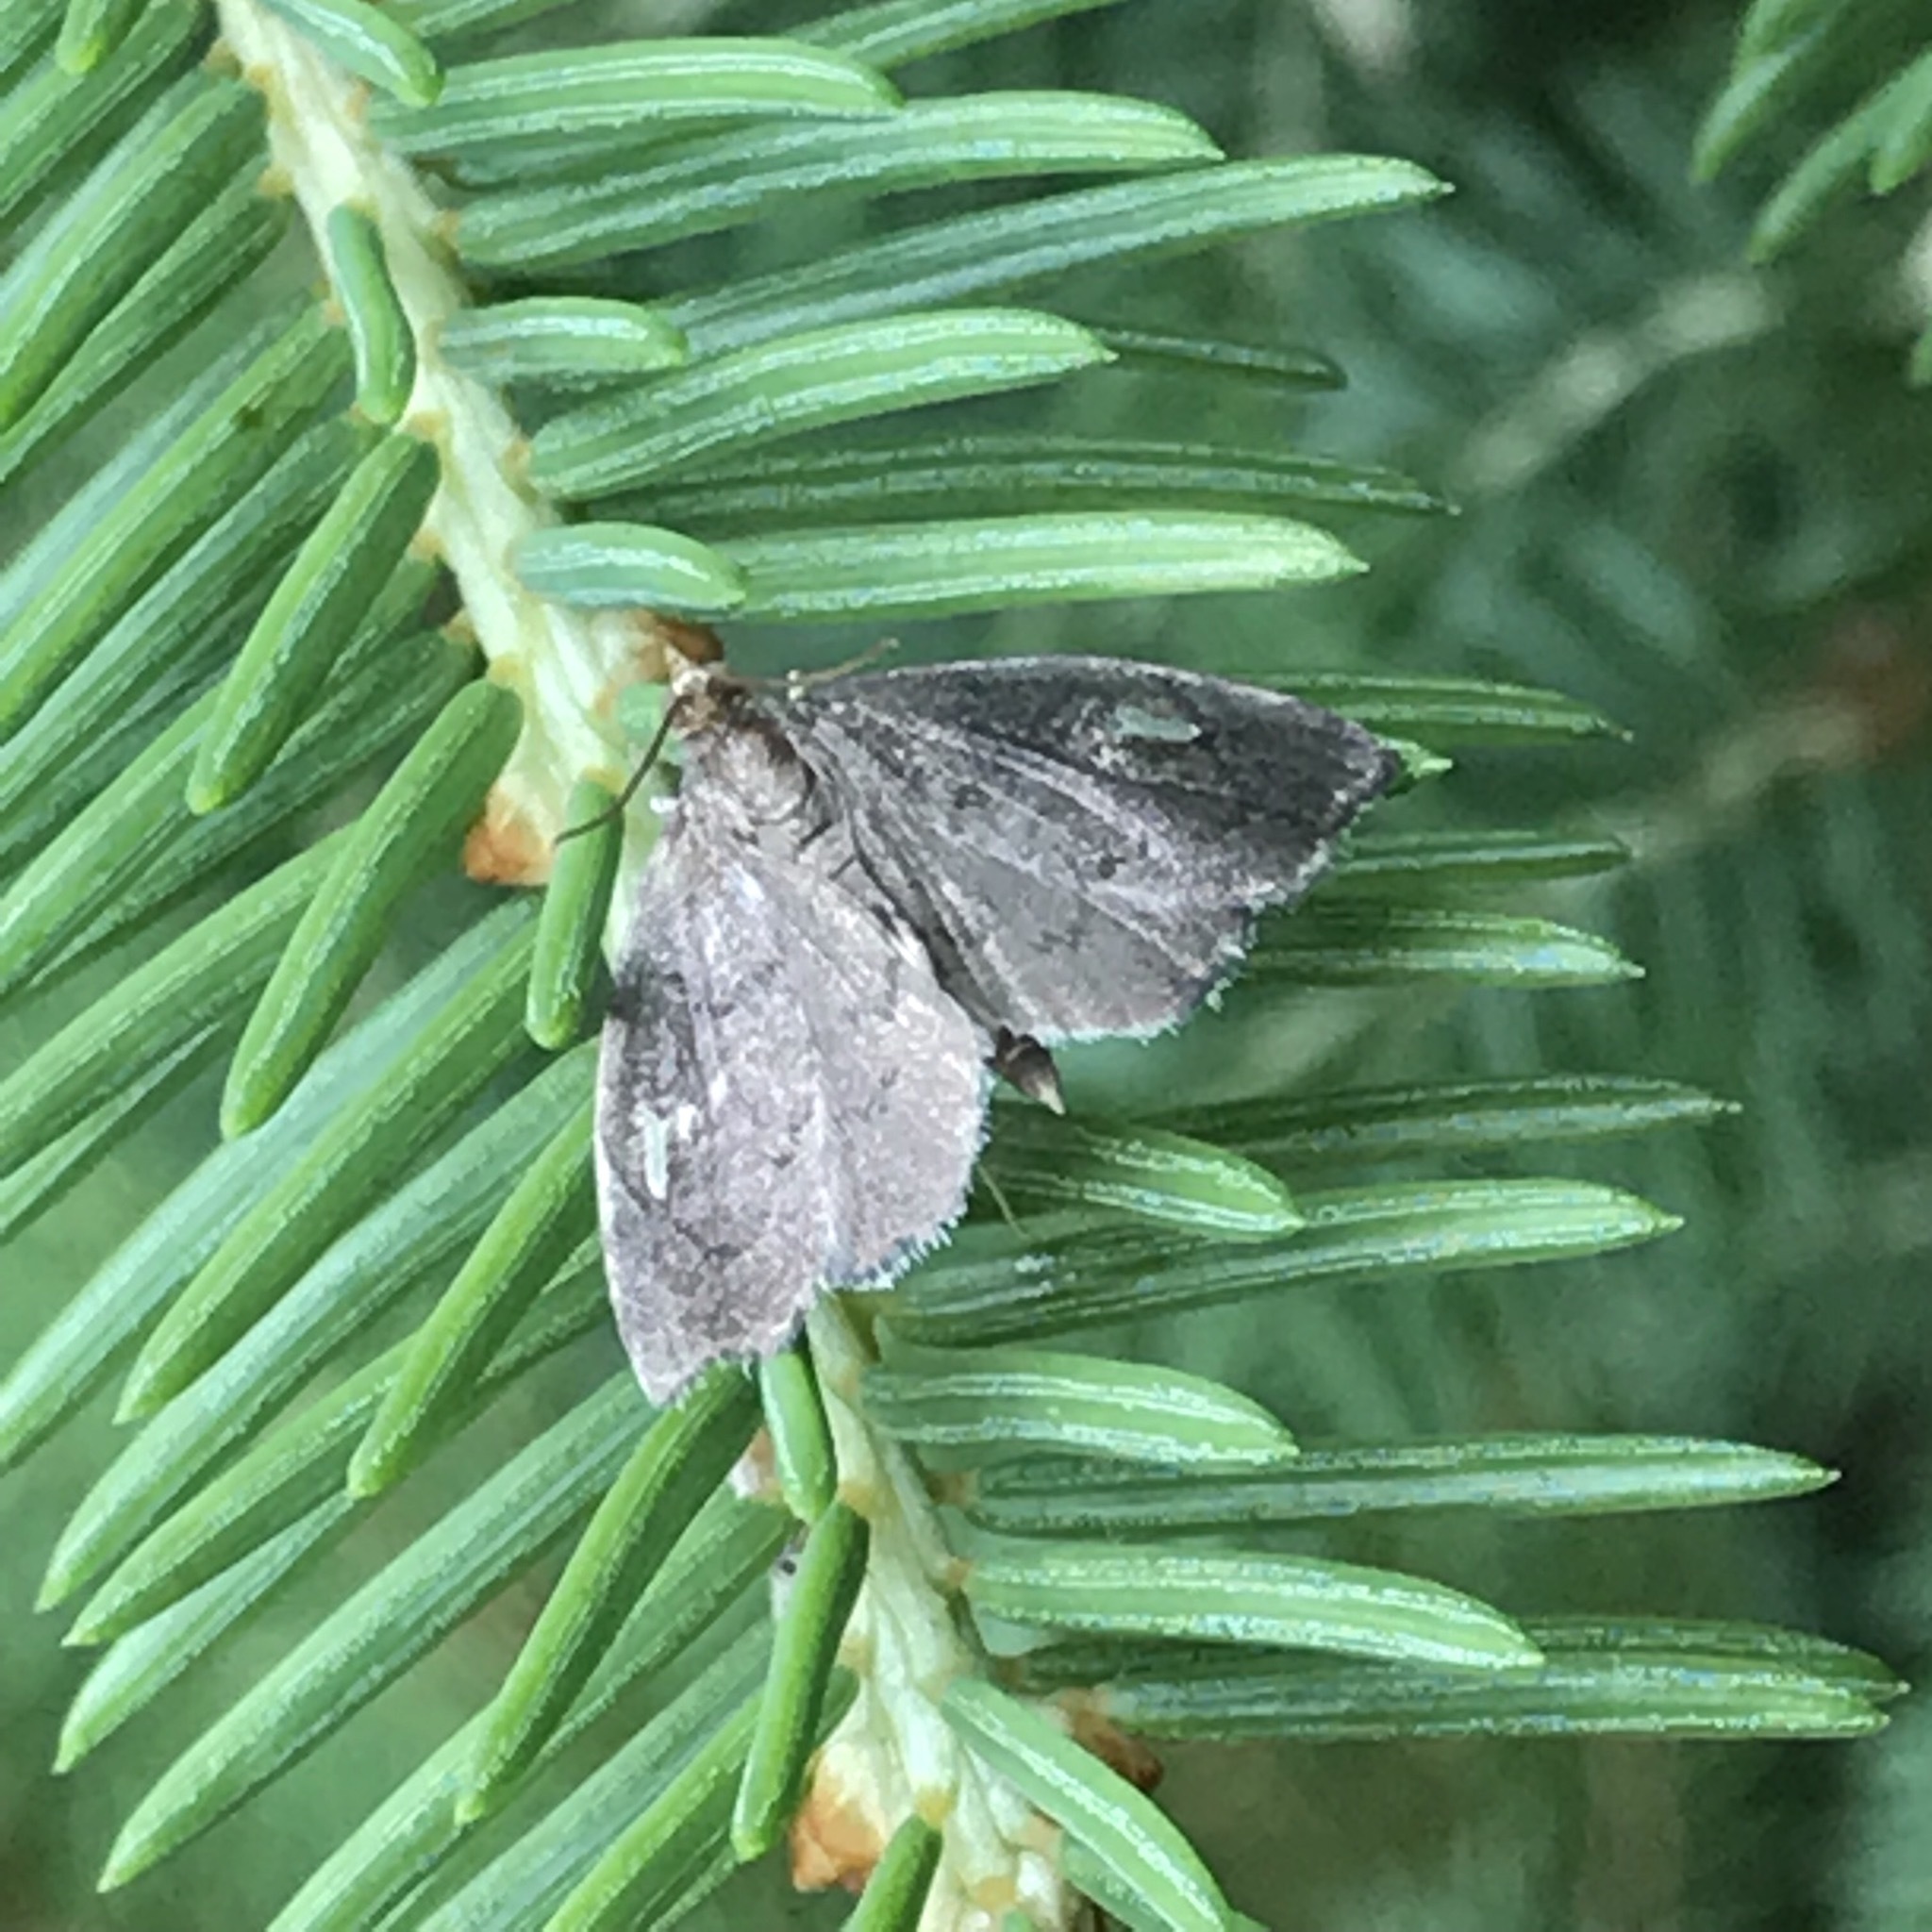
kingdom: Animalia
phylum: Arthropoda
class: Insecta
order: Lepidoptera
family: Crambidae
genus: Perispasta
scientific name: Perispasta caeculalis
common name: Titian peale's moth
